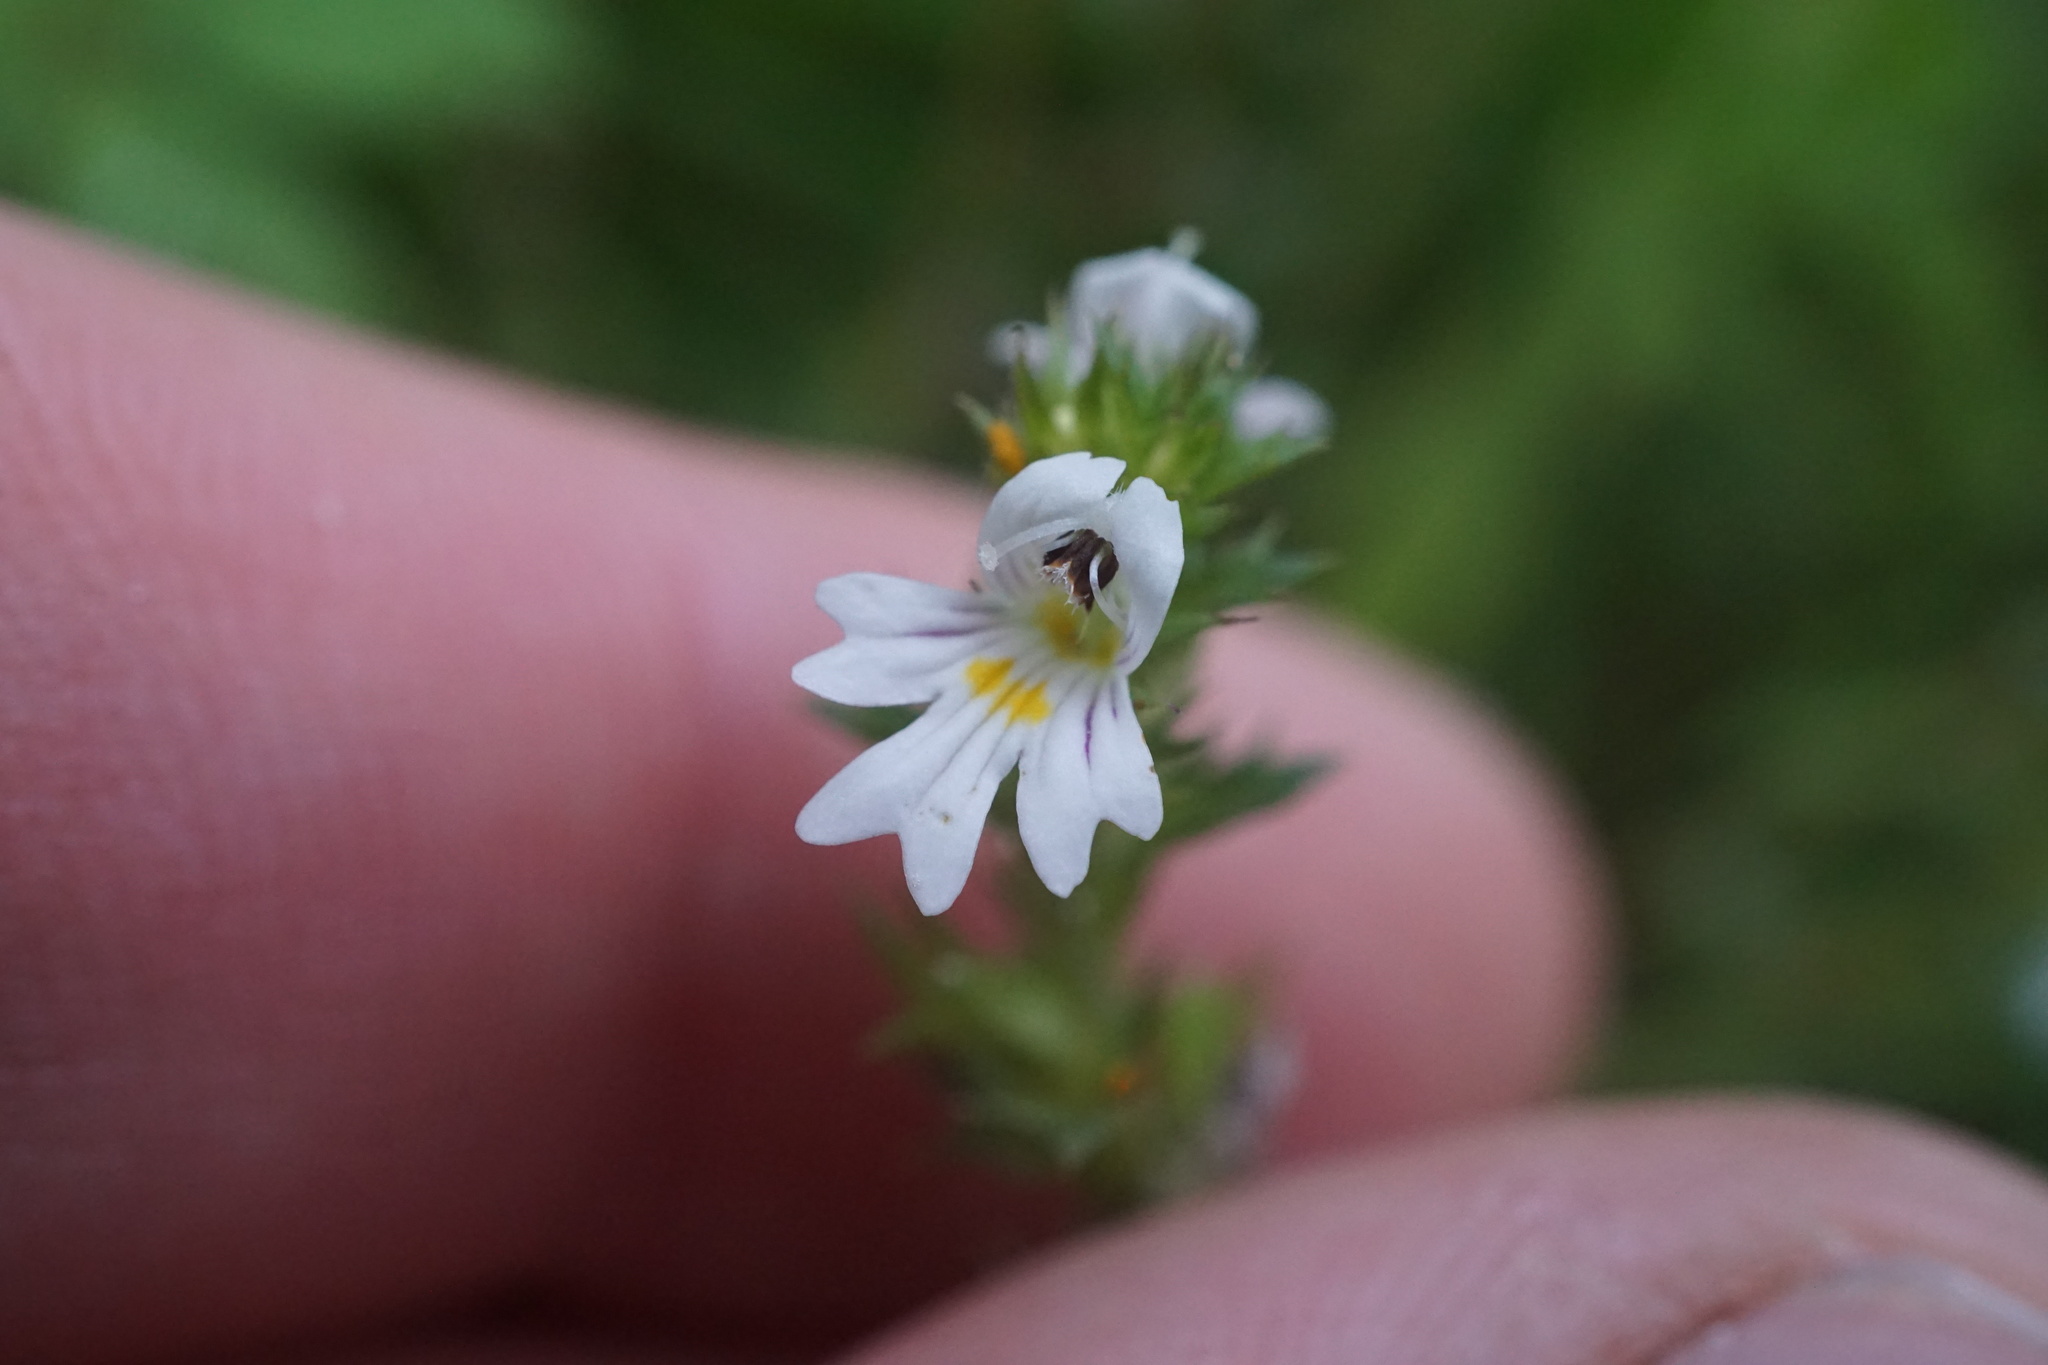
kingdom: Plantae
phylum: Tracheophyta
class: Magnoliopsida
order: Lamiales
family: Orobanchaceae
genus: Euphrasia
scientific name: Euphrasia nemorosa
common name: Common eyebright
